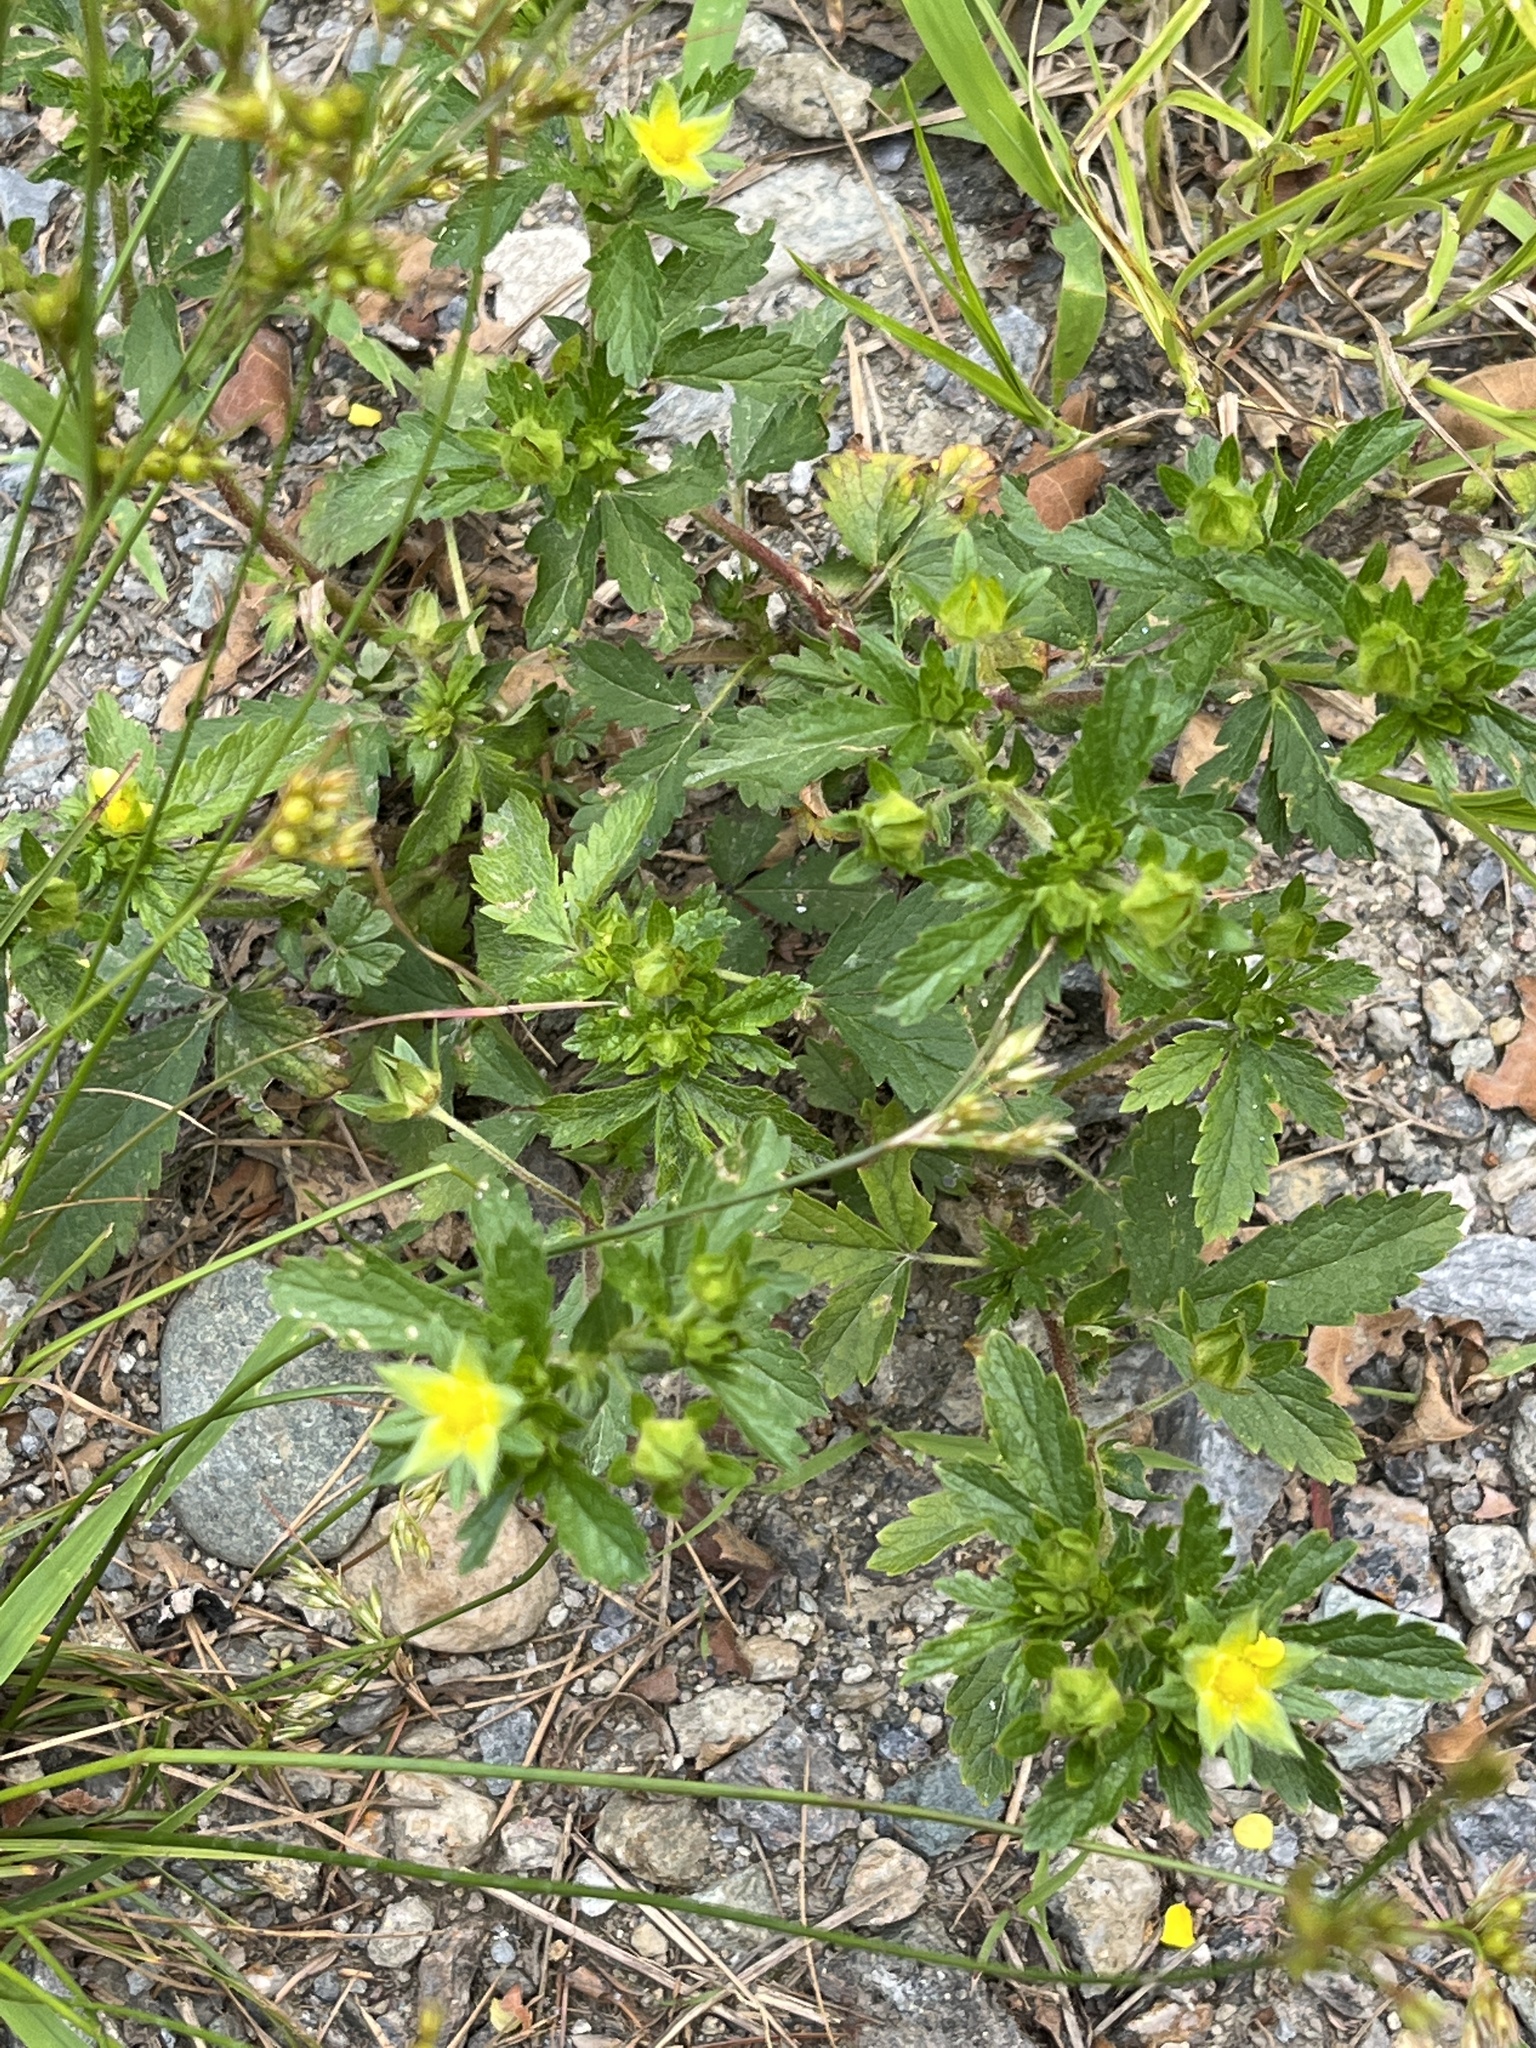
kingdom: Plantae
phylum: Tracheophyta
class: Magnoliopsida
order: Rosales
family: Rosaceae
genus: Potentilla
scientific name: Potentilla norvegica
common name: Ternate-leaved cinquefoil
